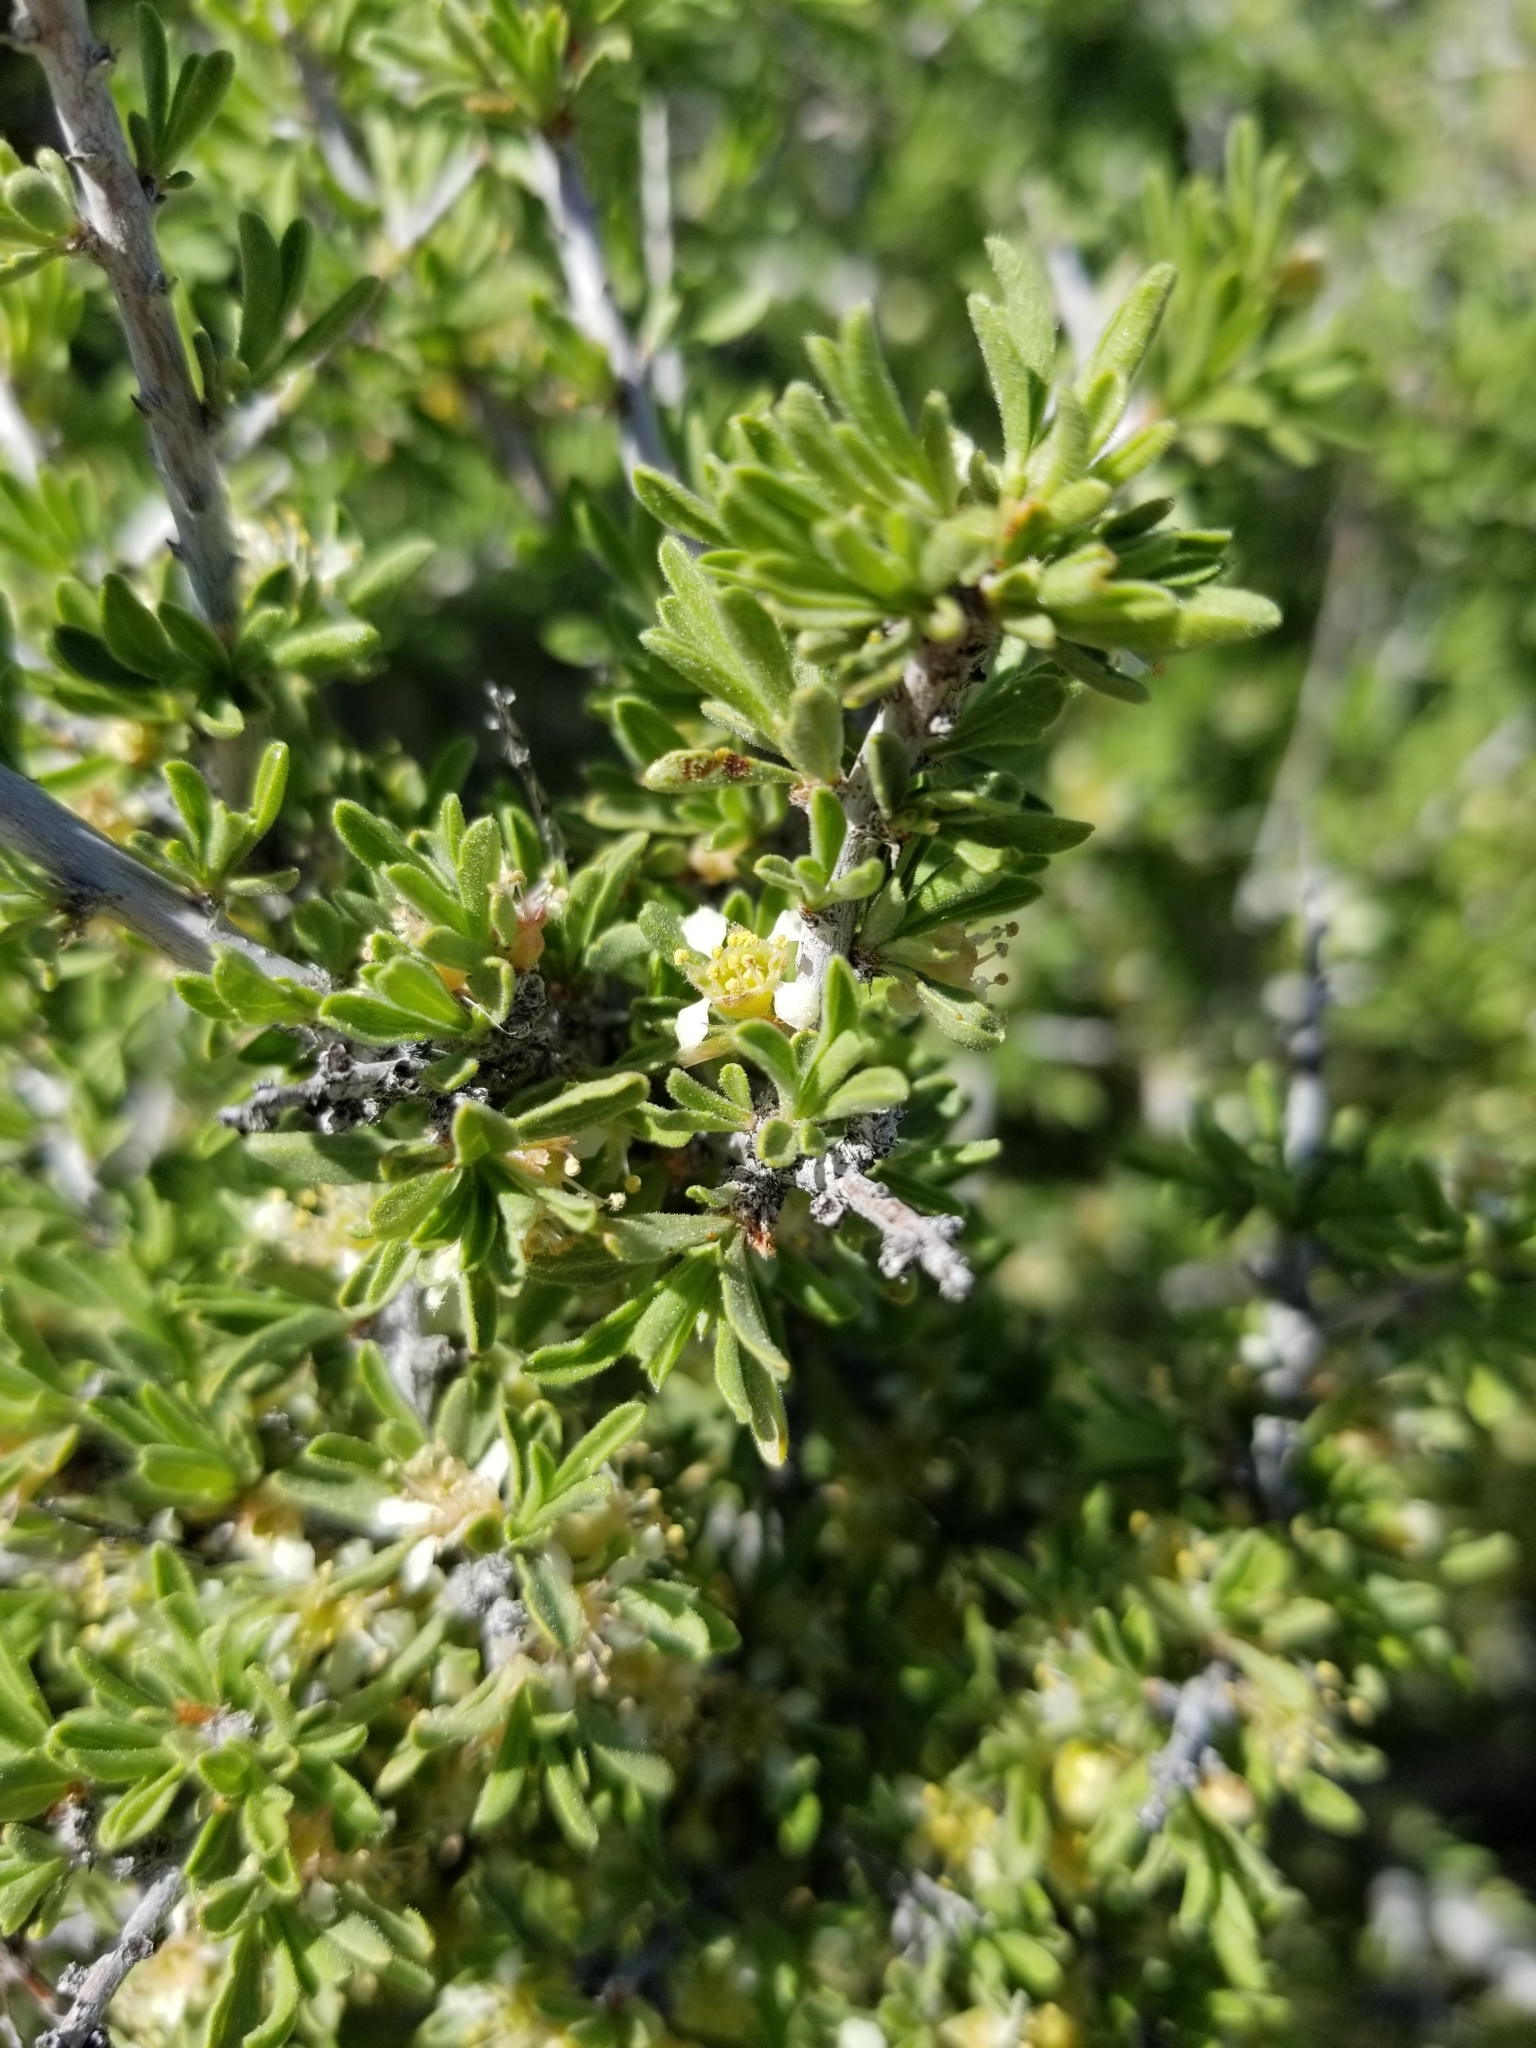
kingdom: Plantae
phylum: Tracheophyta
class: Magnoliopsida
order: Rosales
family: Rosaceae
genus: Prunus
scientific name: Prunus fasciculata
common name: Desert almond
